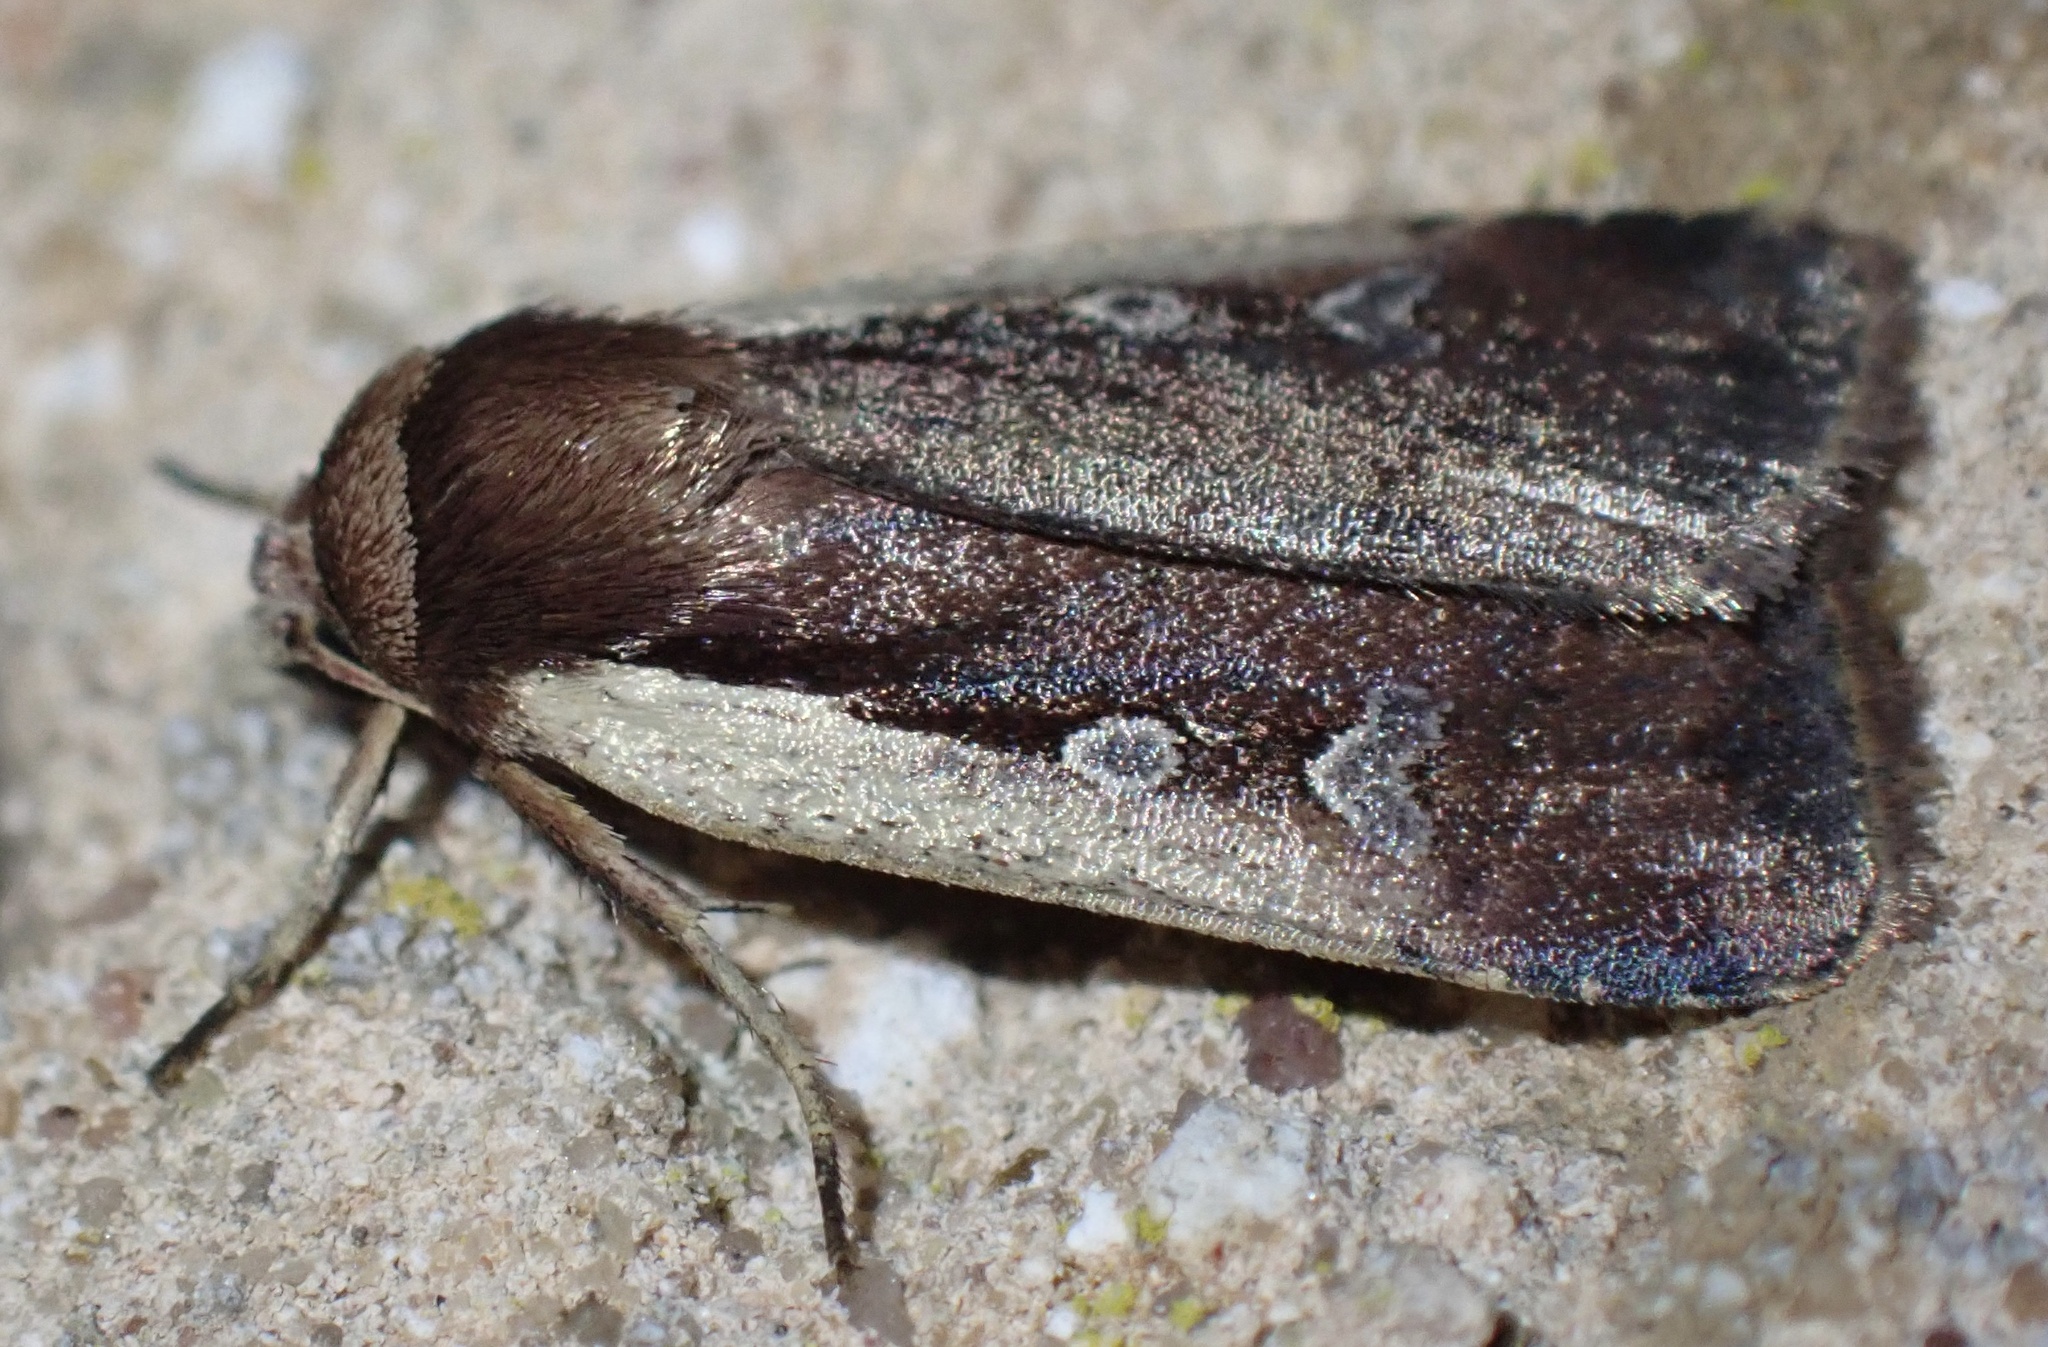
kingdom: Animalia
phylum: Arthropoda
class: Insecta
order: Lepidoptera
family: Noctuidae
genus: Ochropleura
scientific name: Ochropleura plecta
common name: Flame shoulder
